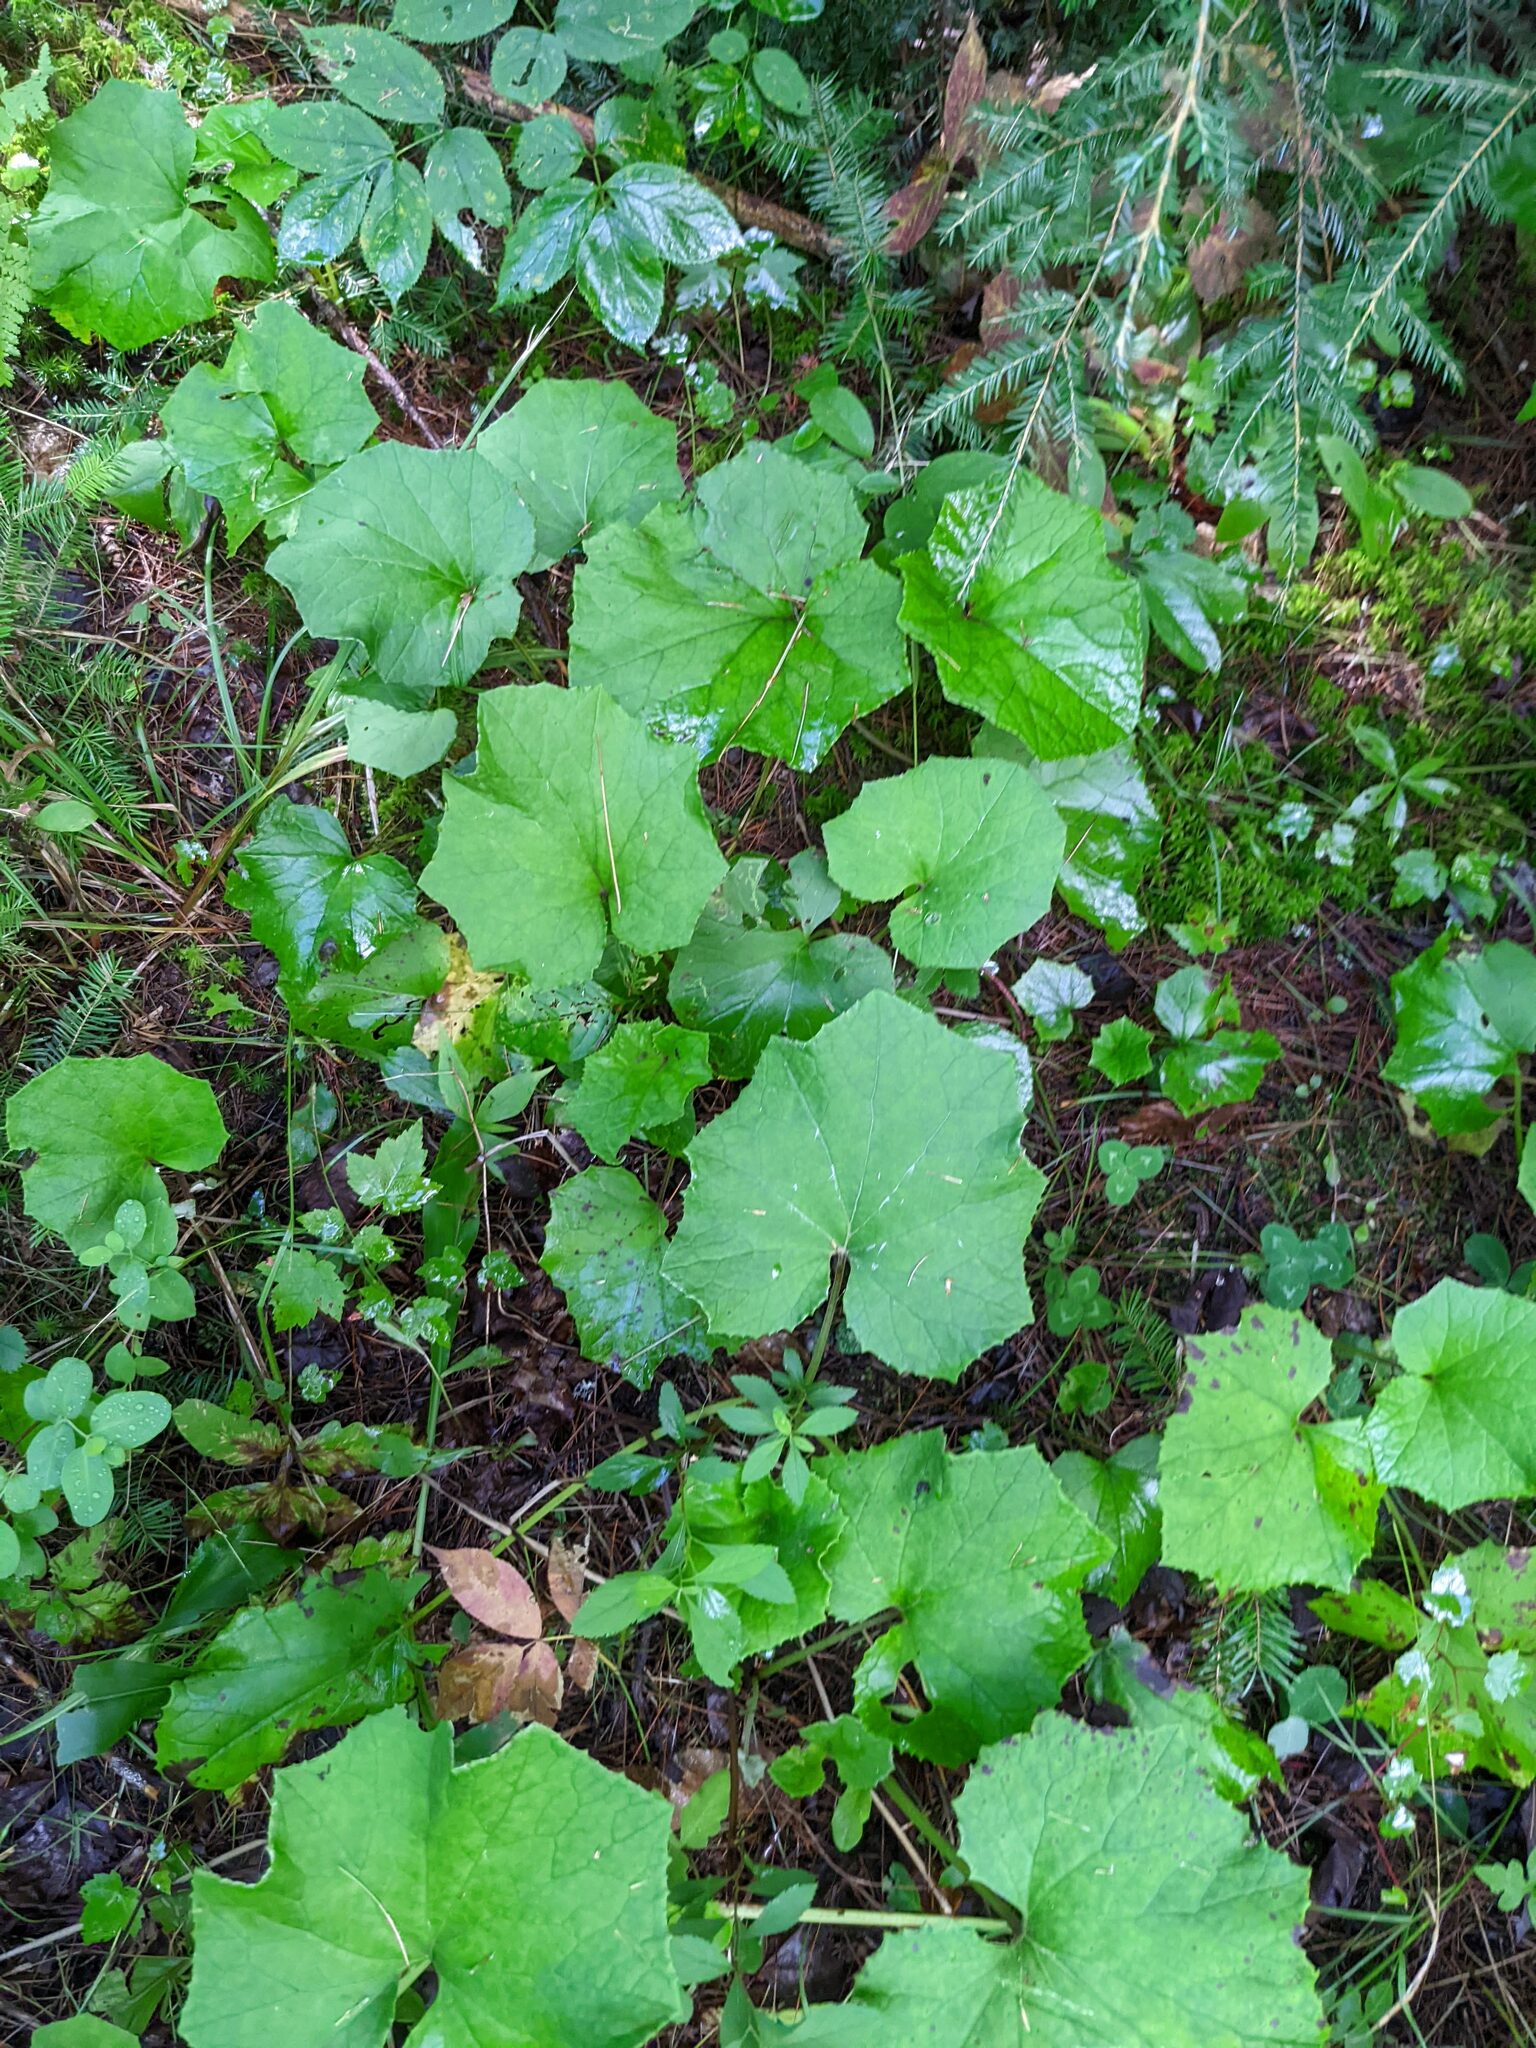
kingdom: Plantae
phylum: Tracheophyta
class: Magnoliopsida
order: Asterales
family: Asteraceae
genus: Tussilago
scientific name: Tussilago farfara
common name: Coltsfoot
